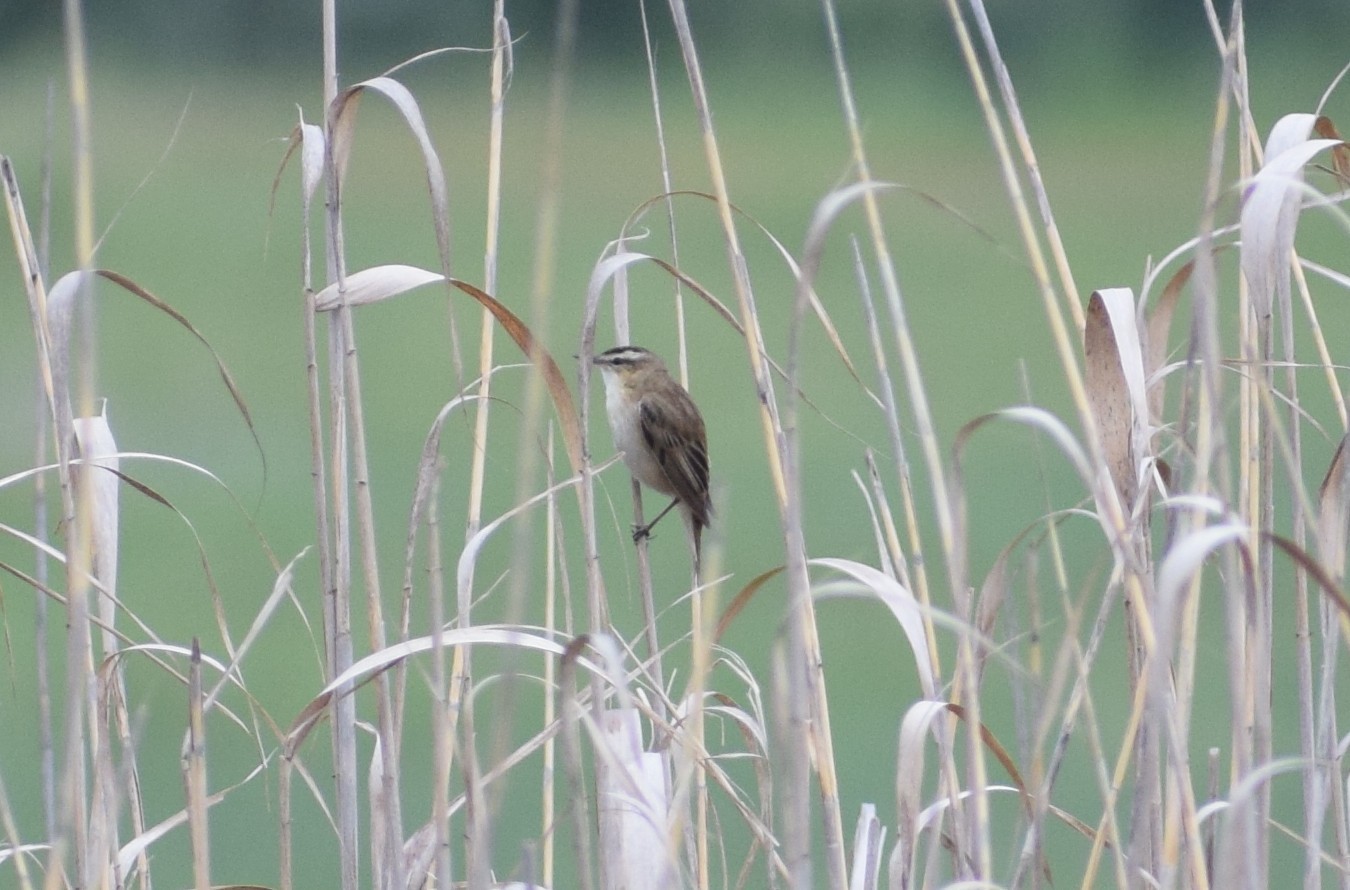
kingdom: Animalia
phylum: Chordata
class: Aves
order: Passeriformes
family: Acrocephalidae
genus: Acrocephalus
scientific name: Acrocephalus schoenobaenus
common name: Sedge warbler
